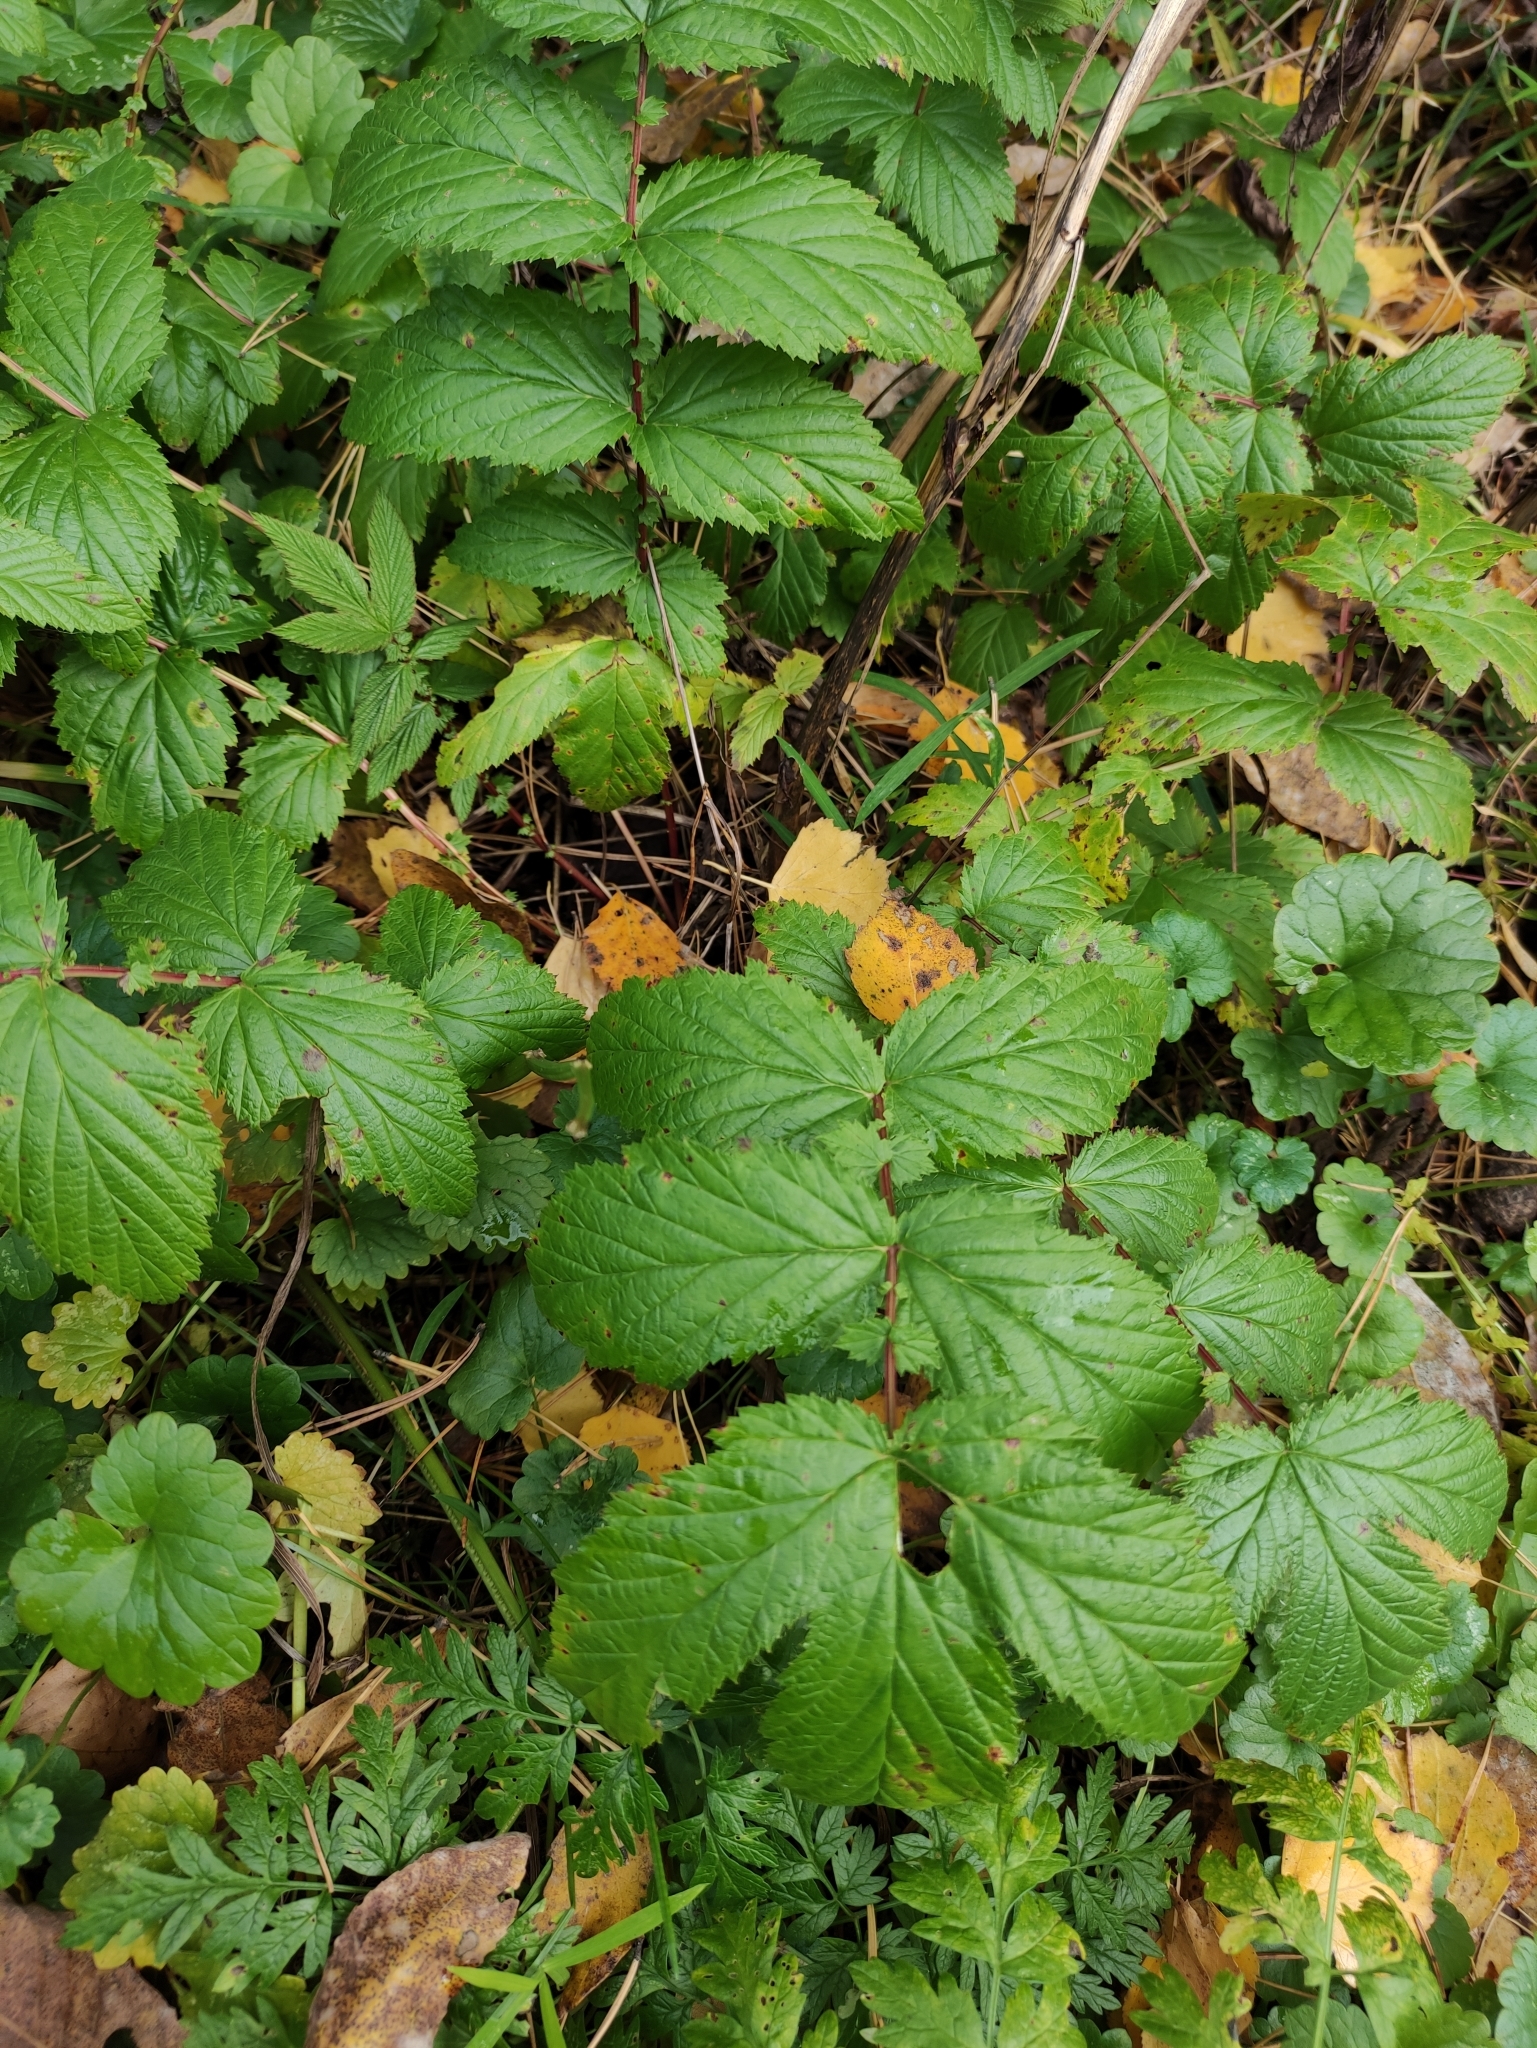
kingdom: Plantae
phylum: Tracheophyta
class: Magnoliopsida
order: Rosales
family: Rosaceae
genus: Filipendula
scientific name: Filipendula ulmaria
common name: Meadowsweet
